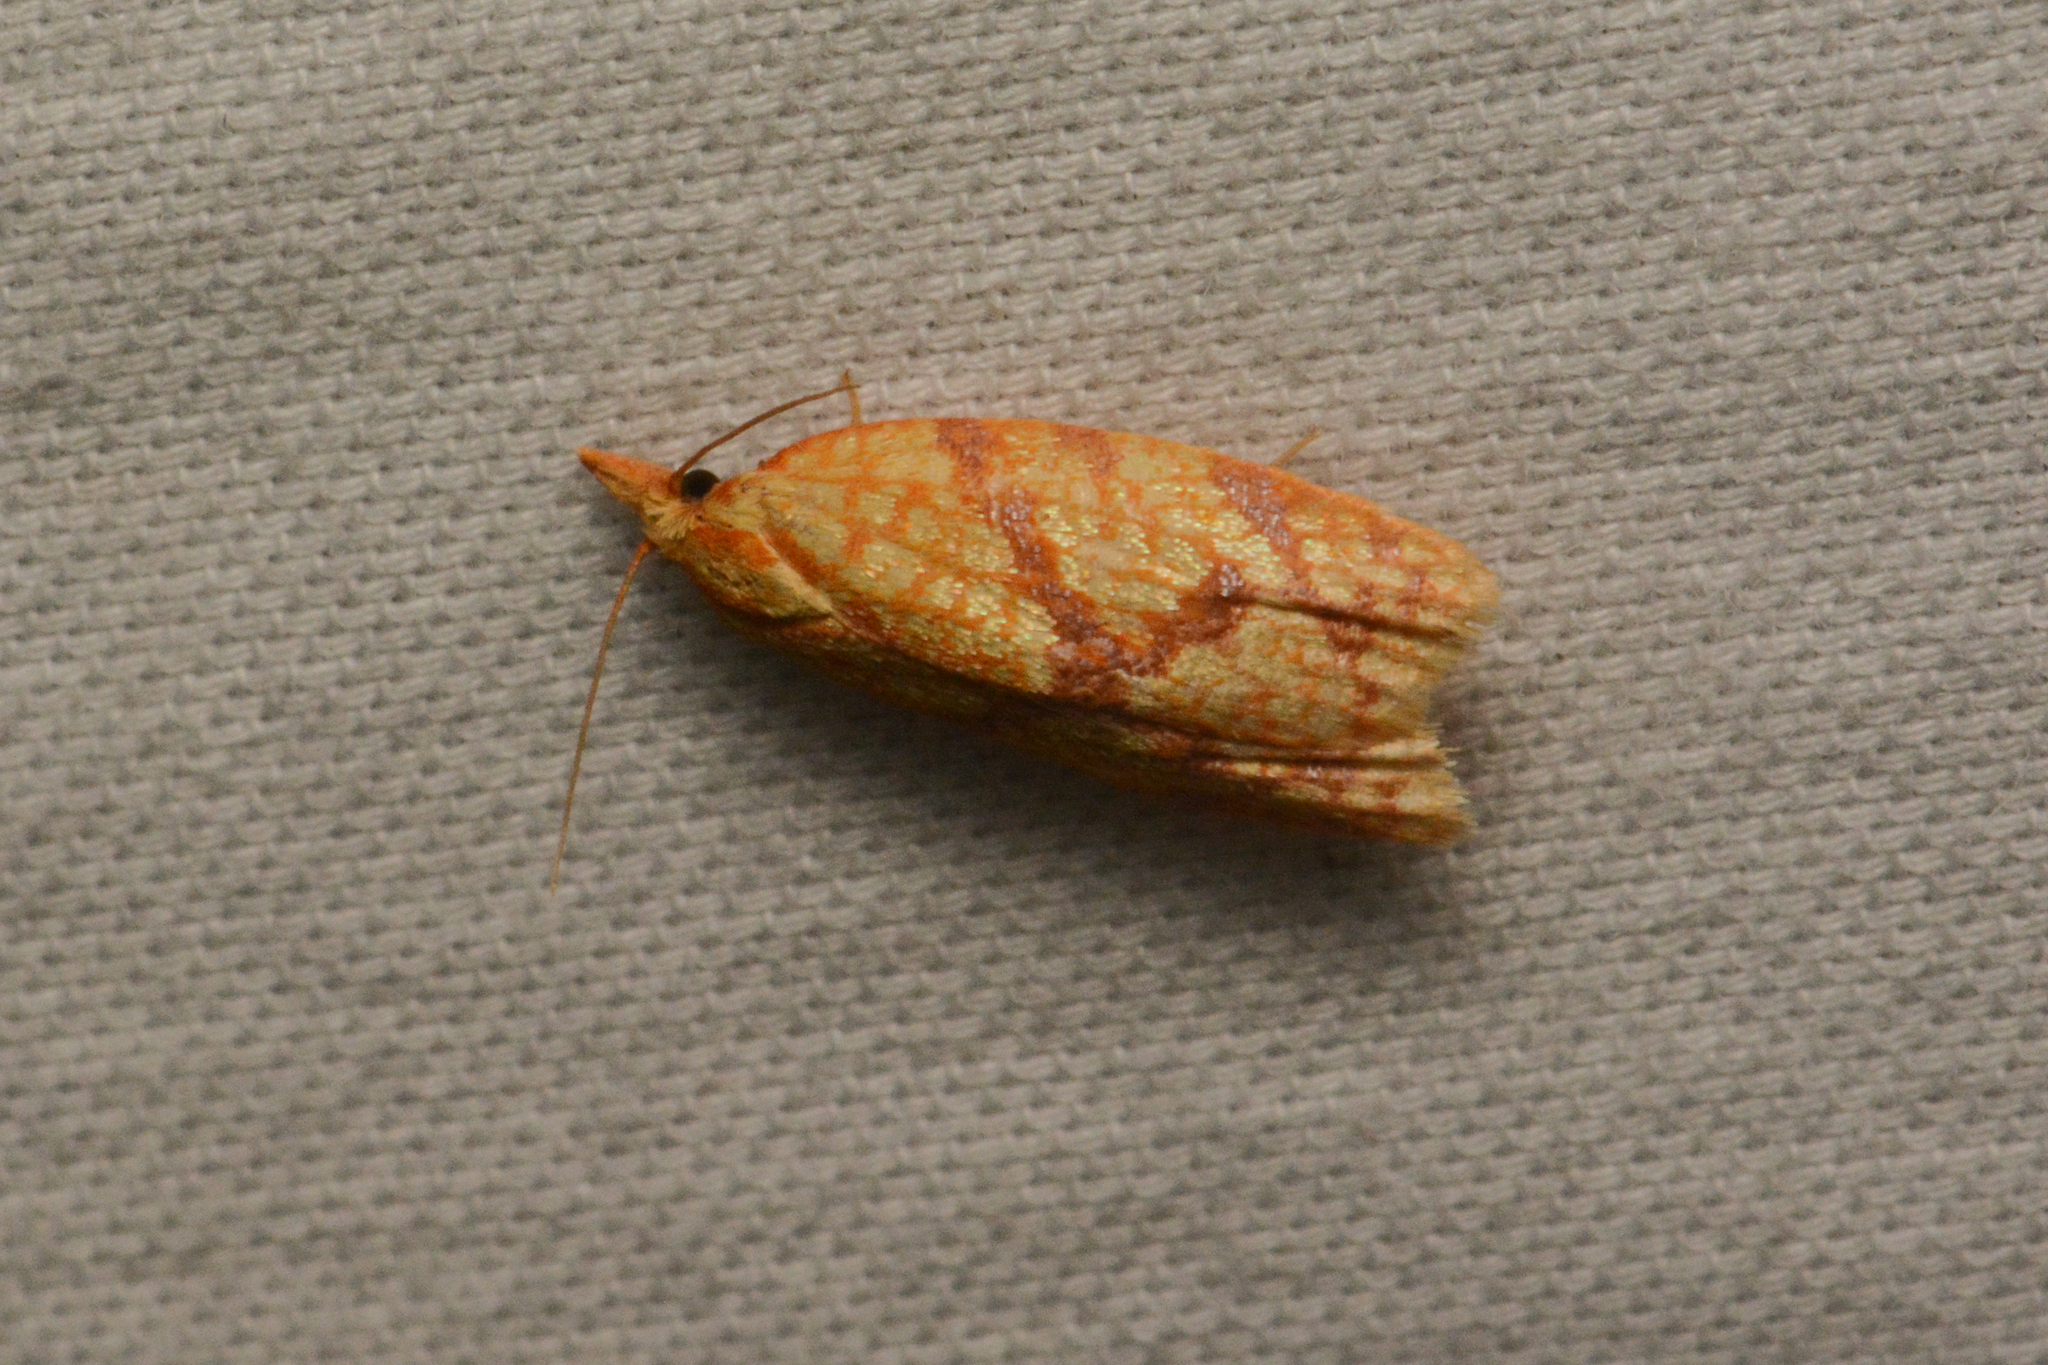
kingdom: Animalia
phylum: Arthropoda
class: Insecta
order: Lepidoptera
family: Tortricidae
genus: Sparganothis
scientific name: Sparganothis sulfureana
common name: Sparganothis fruitworm moth
